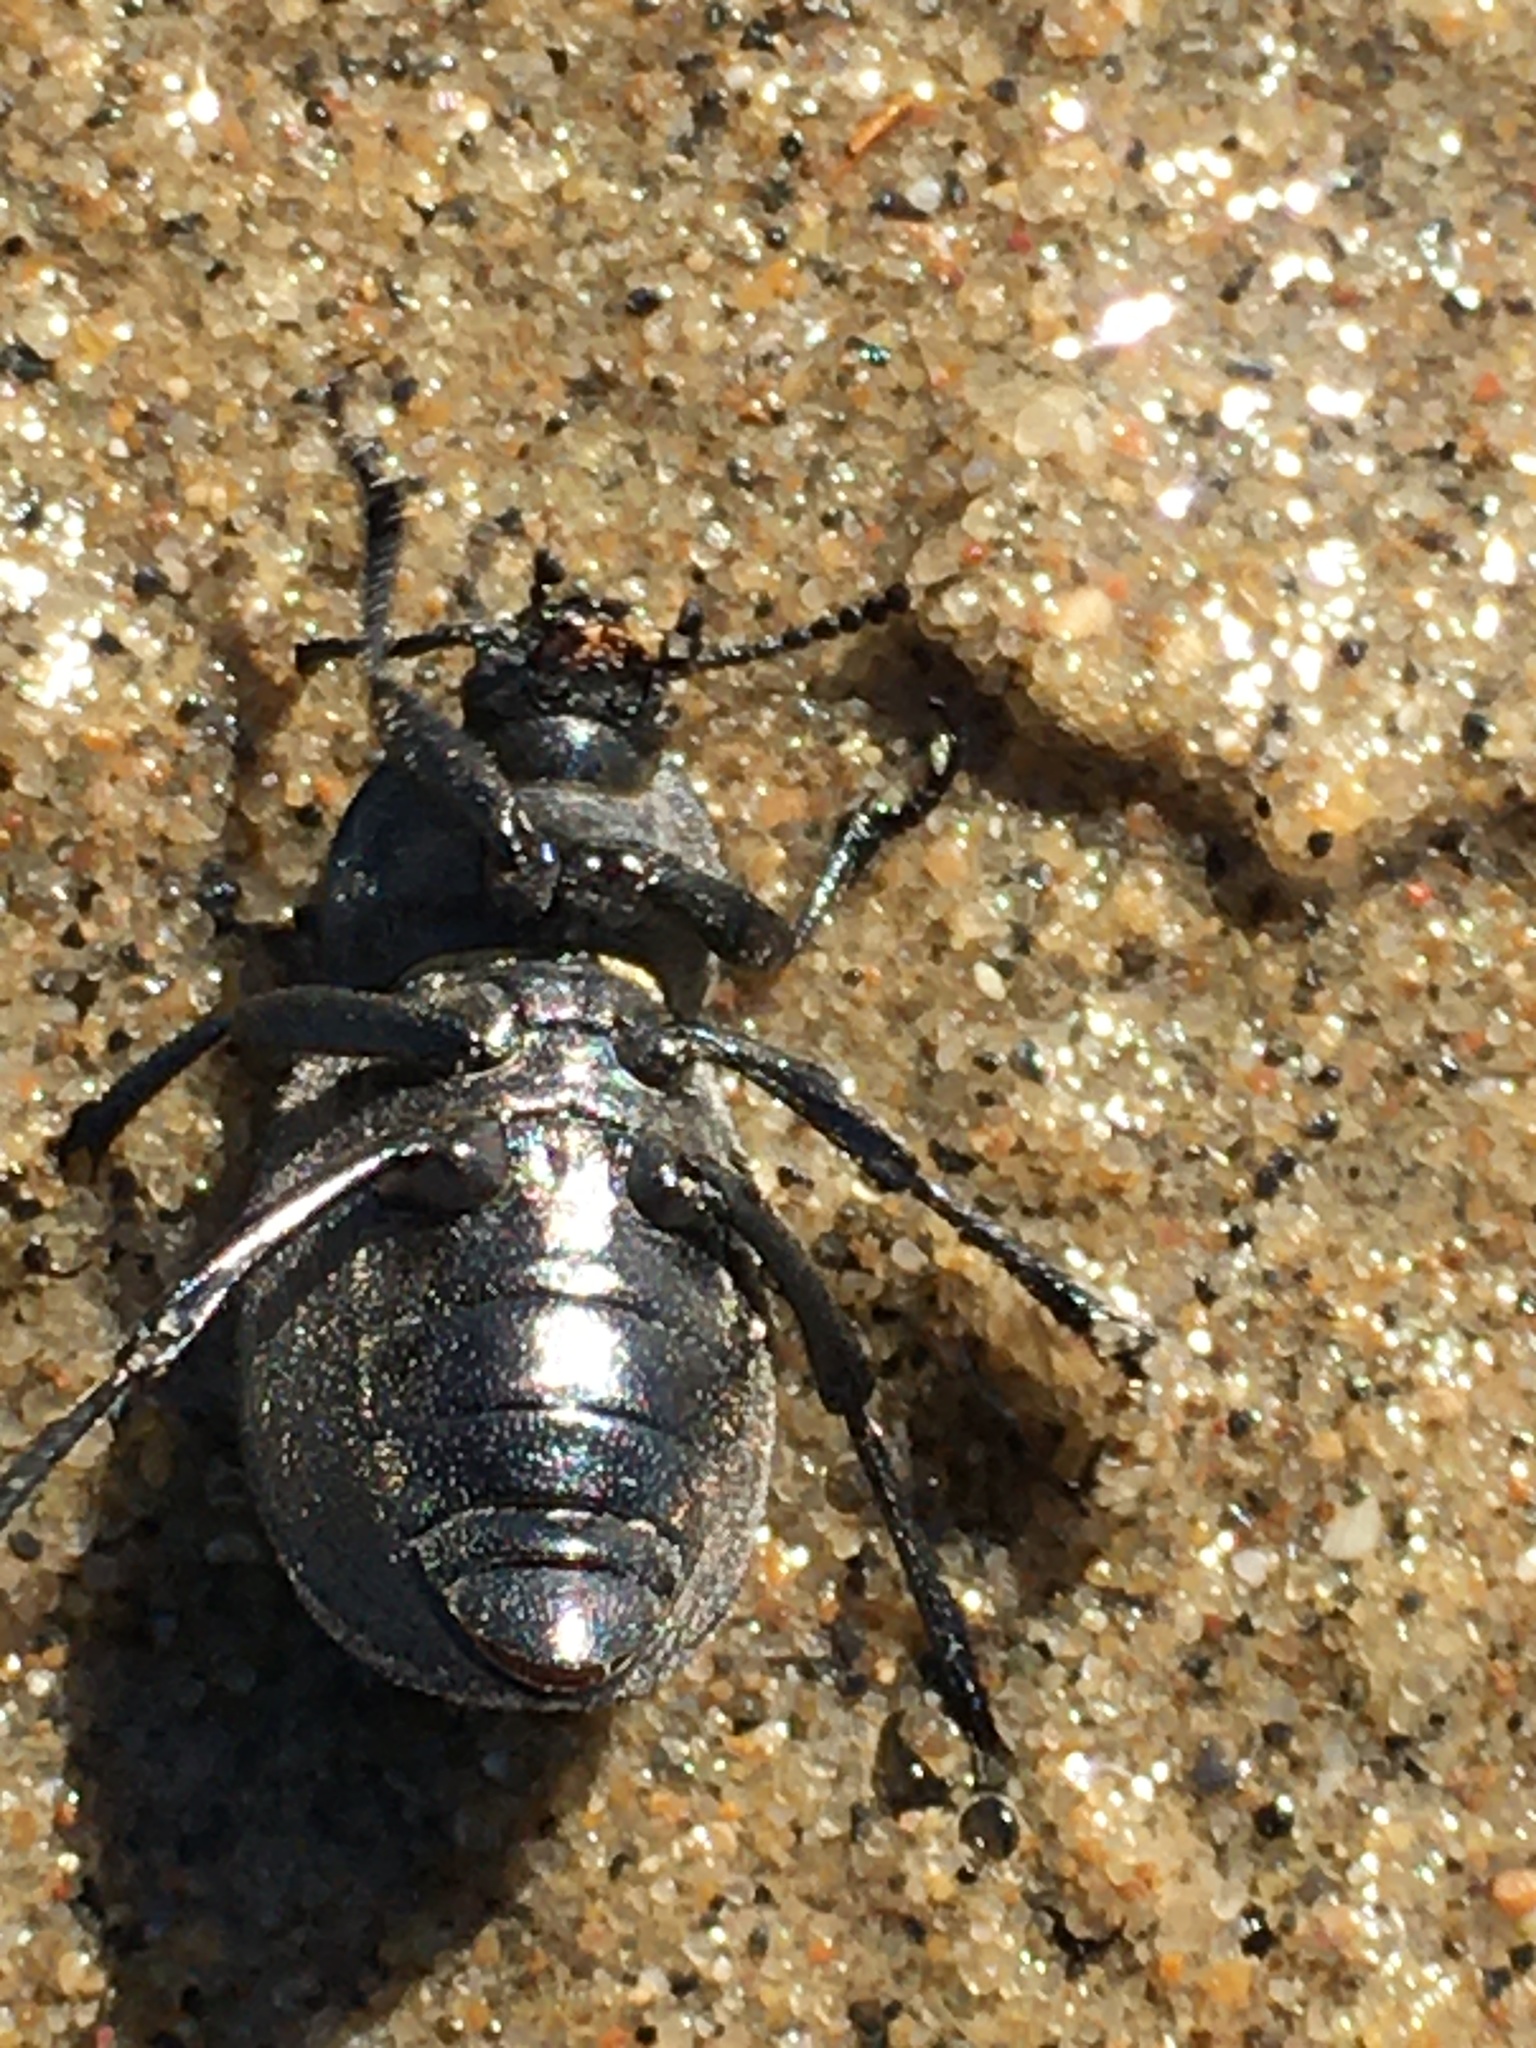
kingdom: Animalia
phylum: Arthropoda
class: Insecta
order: Coleoptera
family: Tenebrionidae
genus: Eleodes
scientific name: Eleodes tricostata
